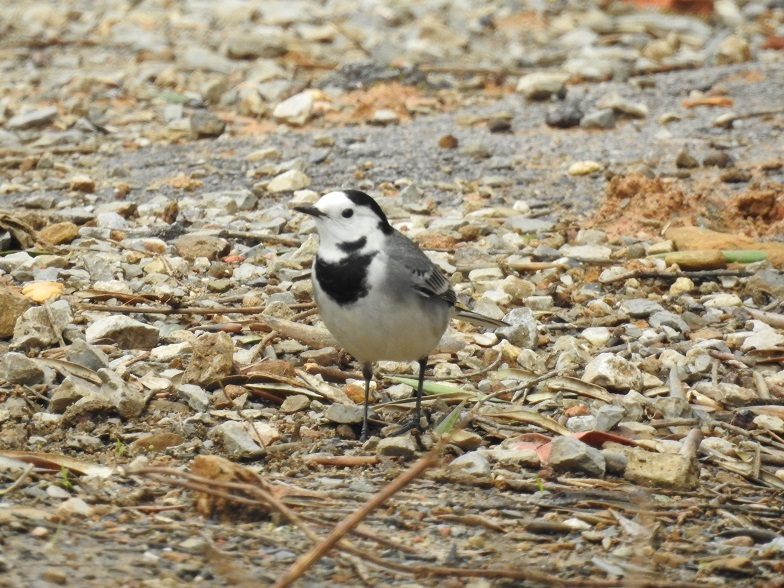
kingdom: Animalia
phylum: Chordata
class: Aves
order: Passeriformes
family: Motacillidae
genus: Motacilla
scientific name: Motacilla alba
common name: White wagtail
